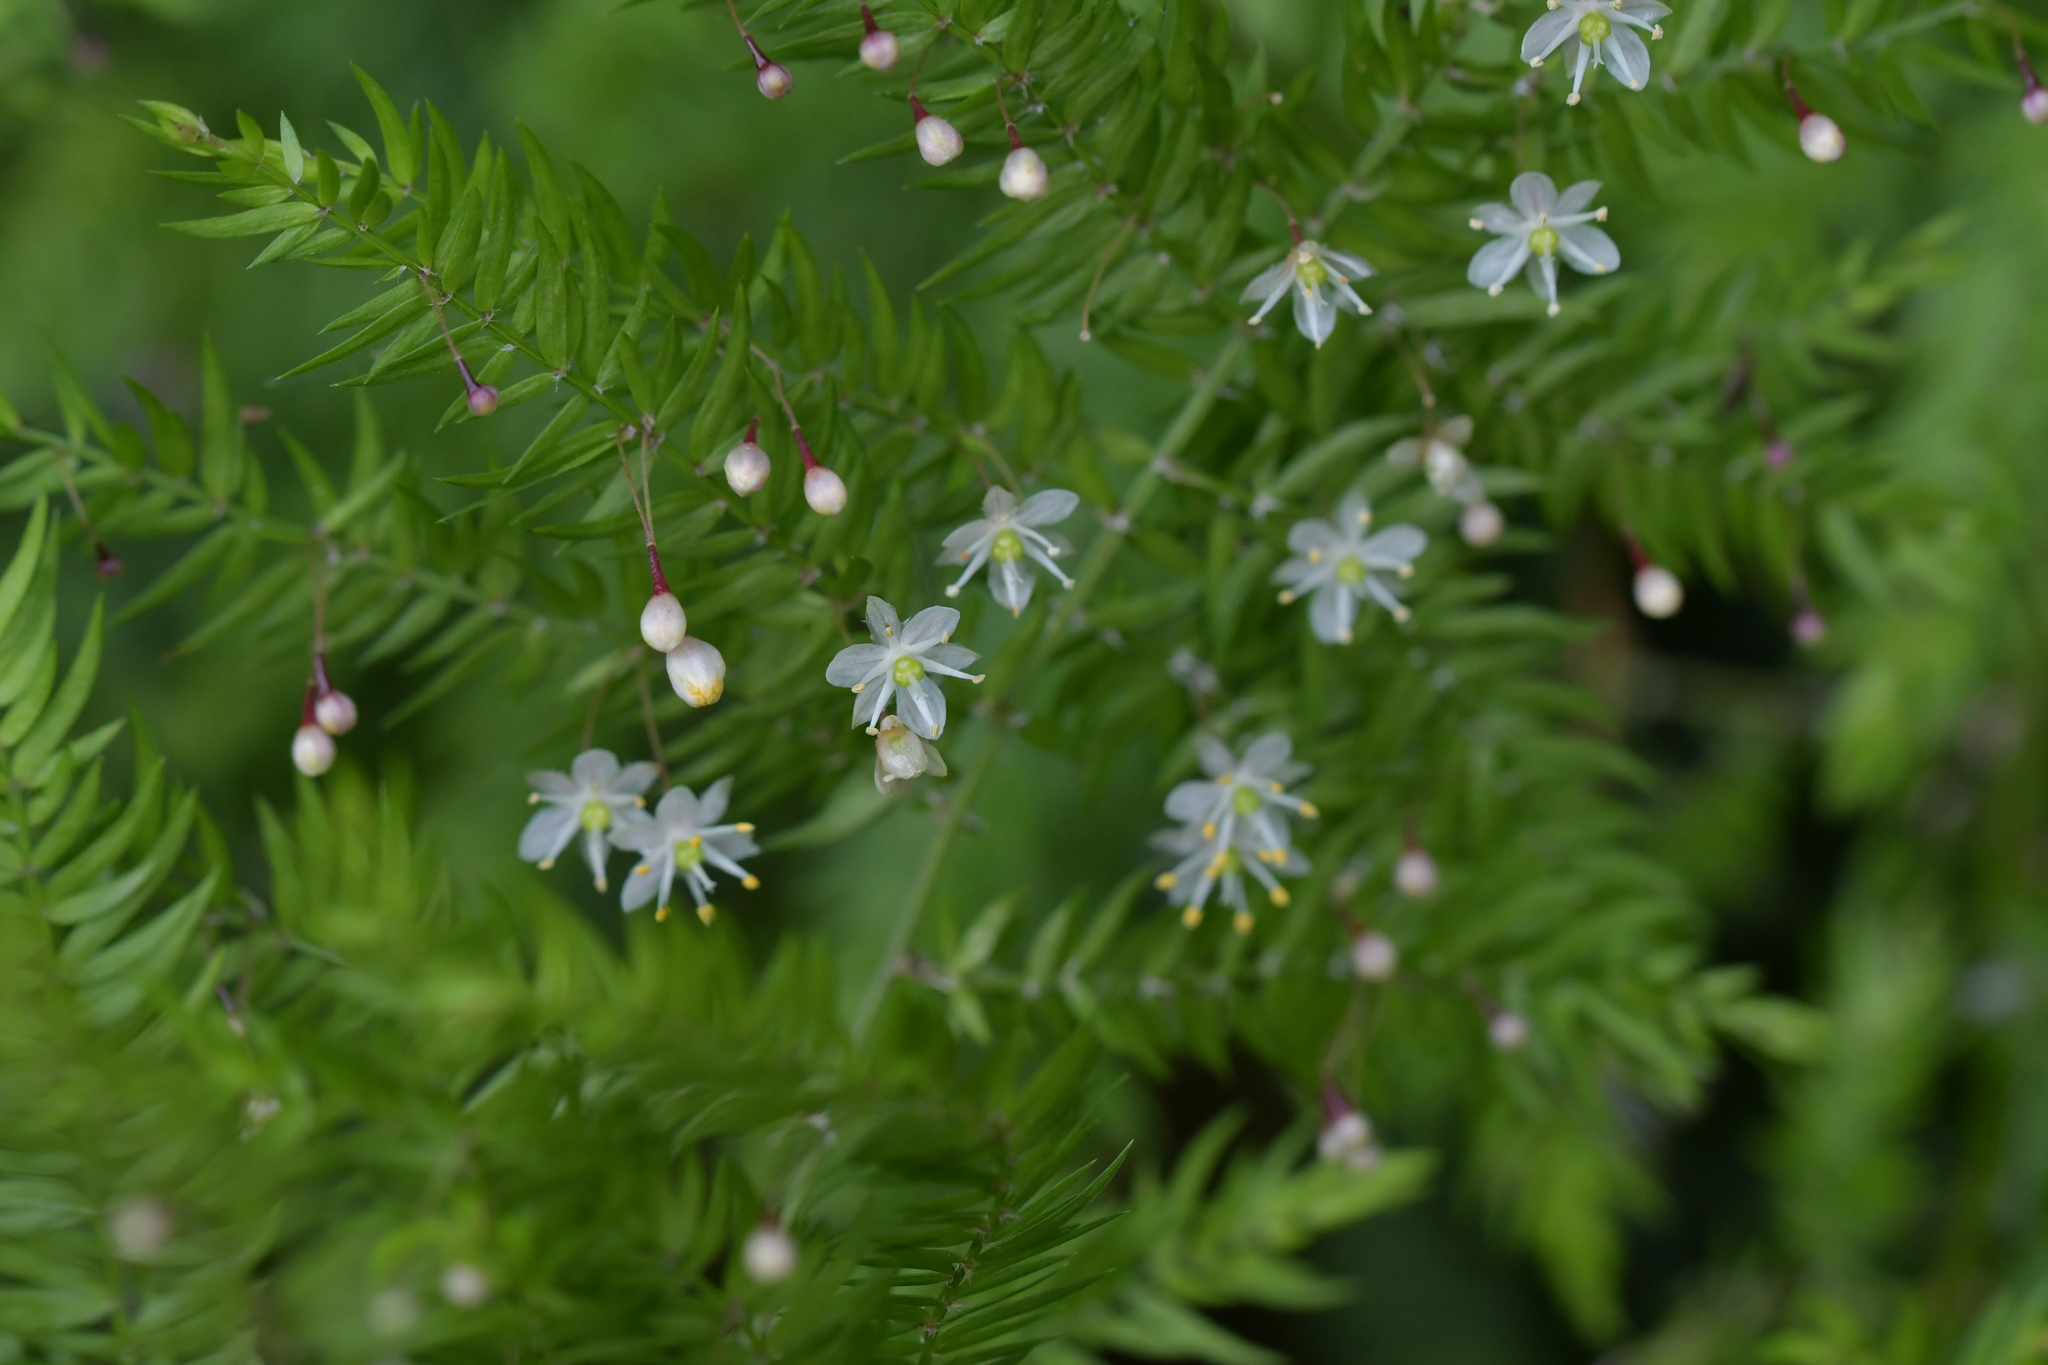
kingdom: Plantae
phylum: Tracheophyta
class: Liliopsida
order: Asparagales
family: Asparagaceae
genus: Asparagus
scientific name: Asparagus scandens
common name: Asparagus-fern
